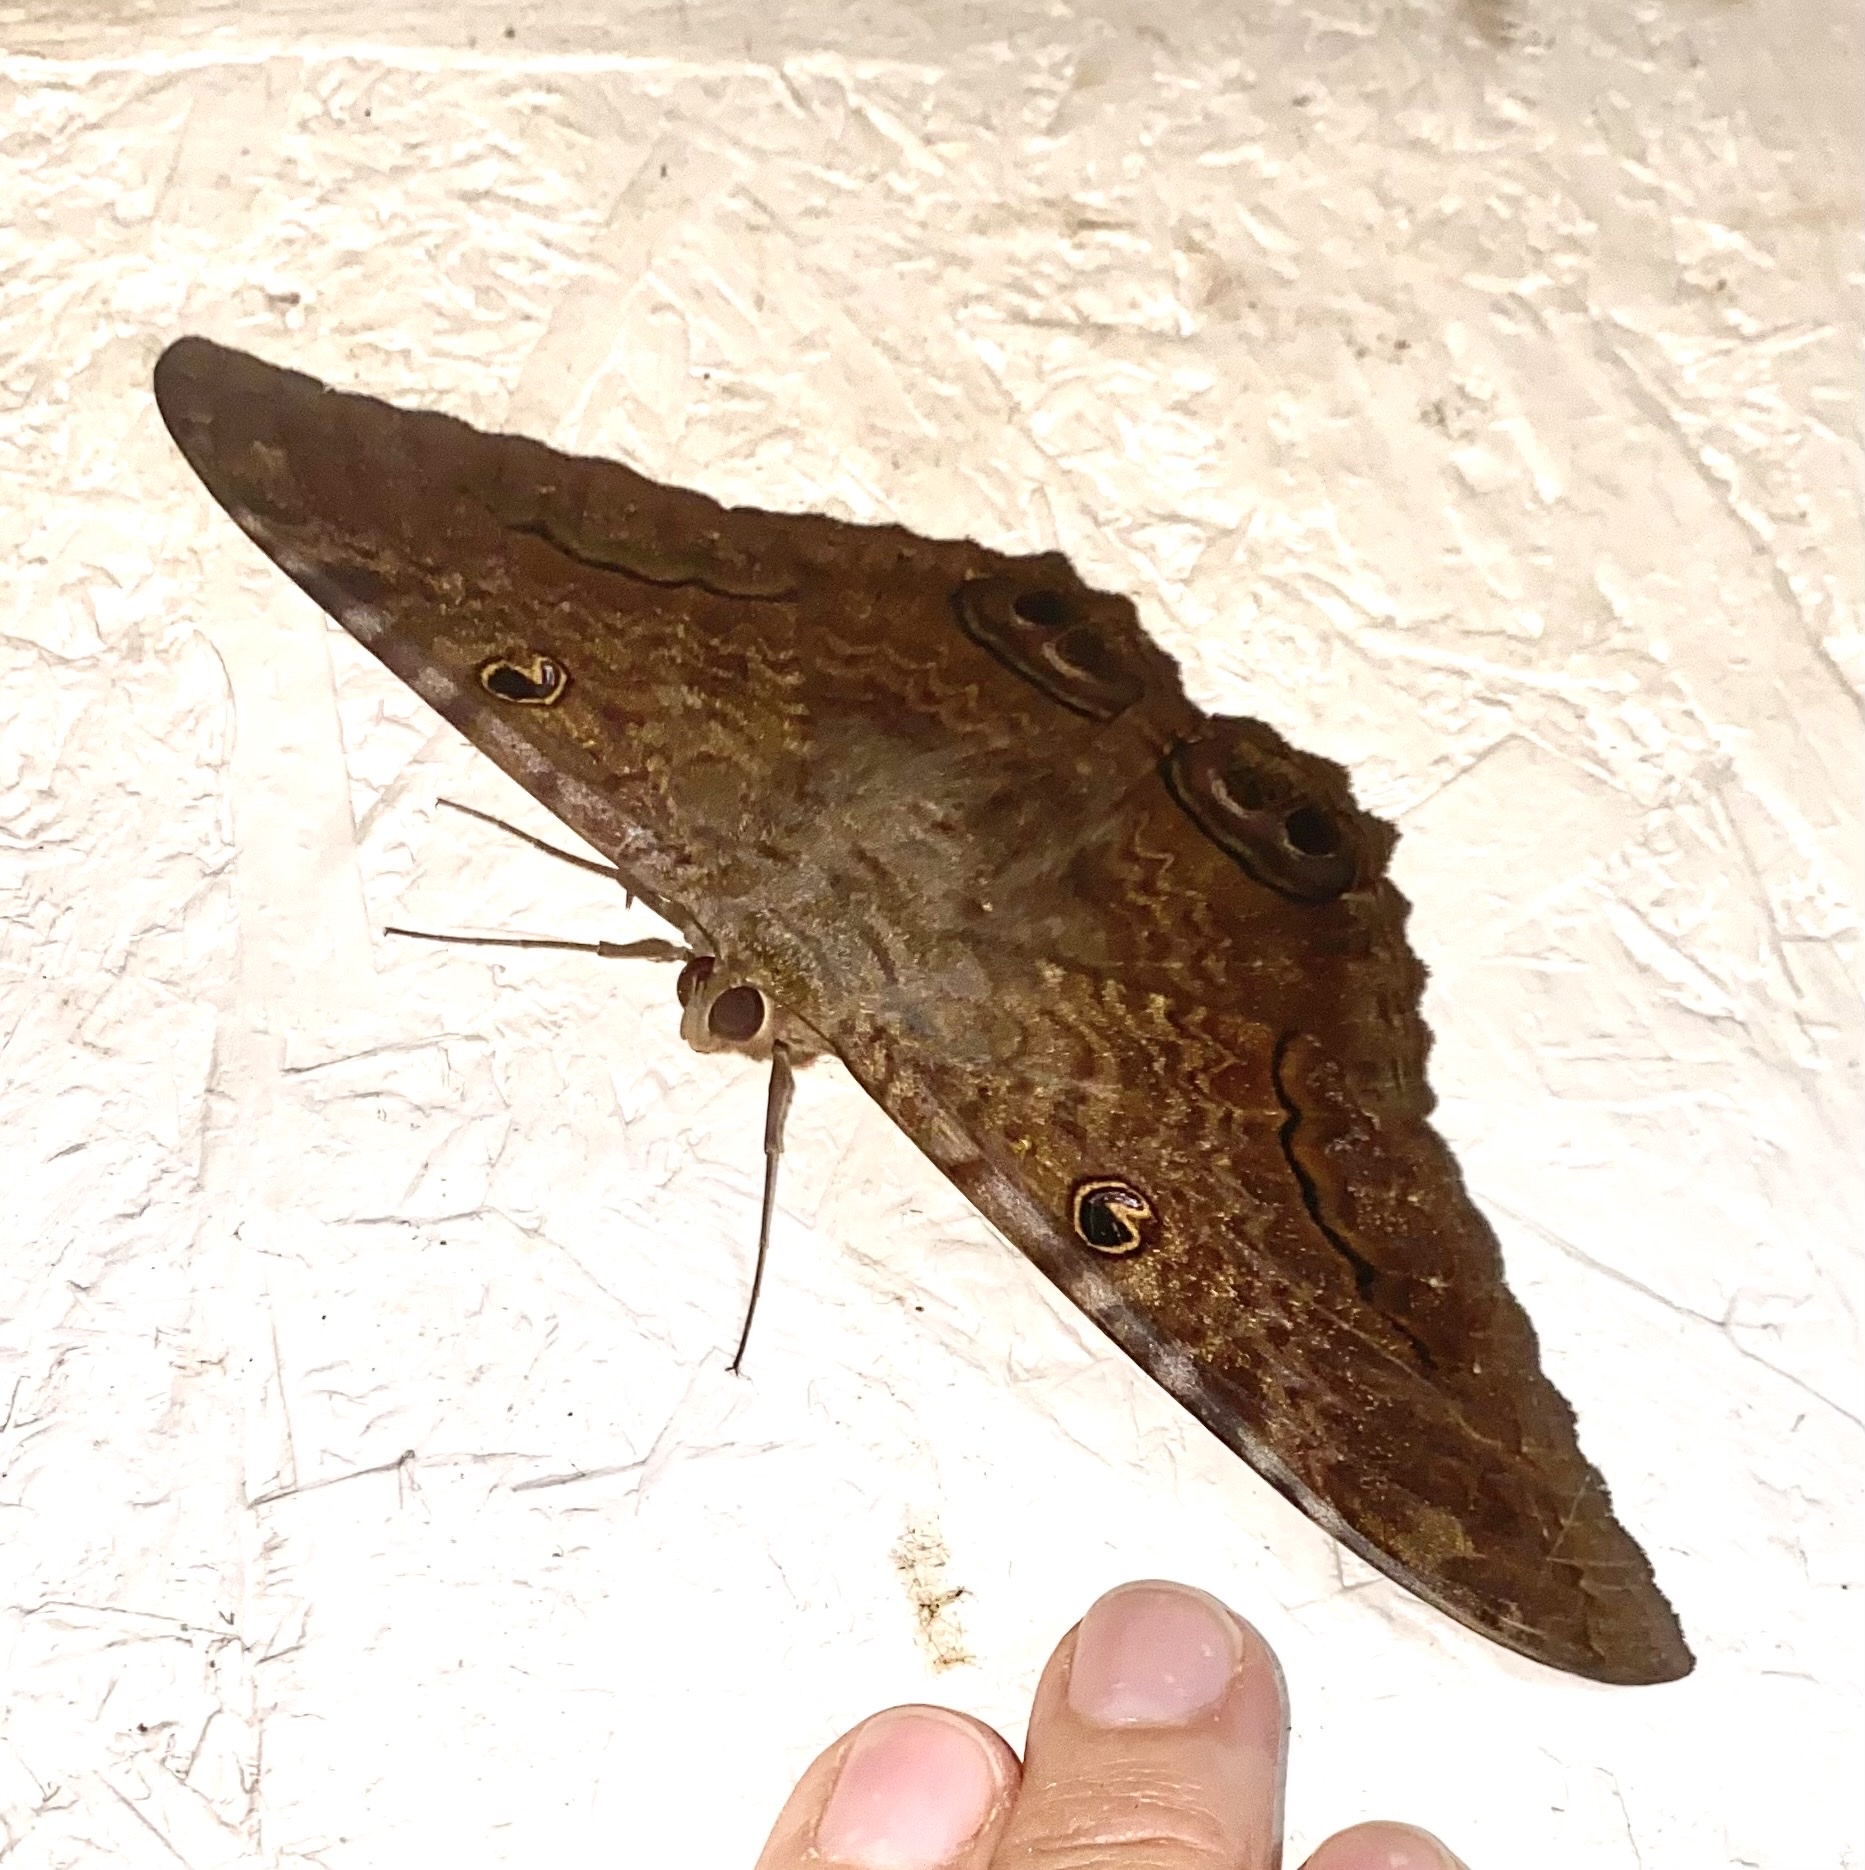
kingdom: Animalia
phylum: Arthropoda
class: Insecta
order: Lepidoptera
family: Erebidae
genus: Ascalapha
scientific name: Ascalapha odorata
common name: Black witch
